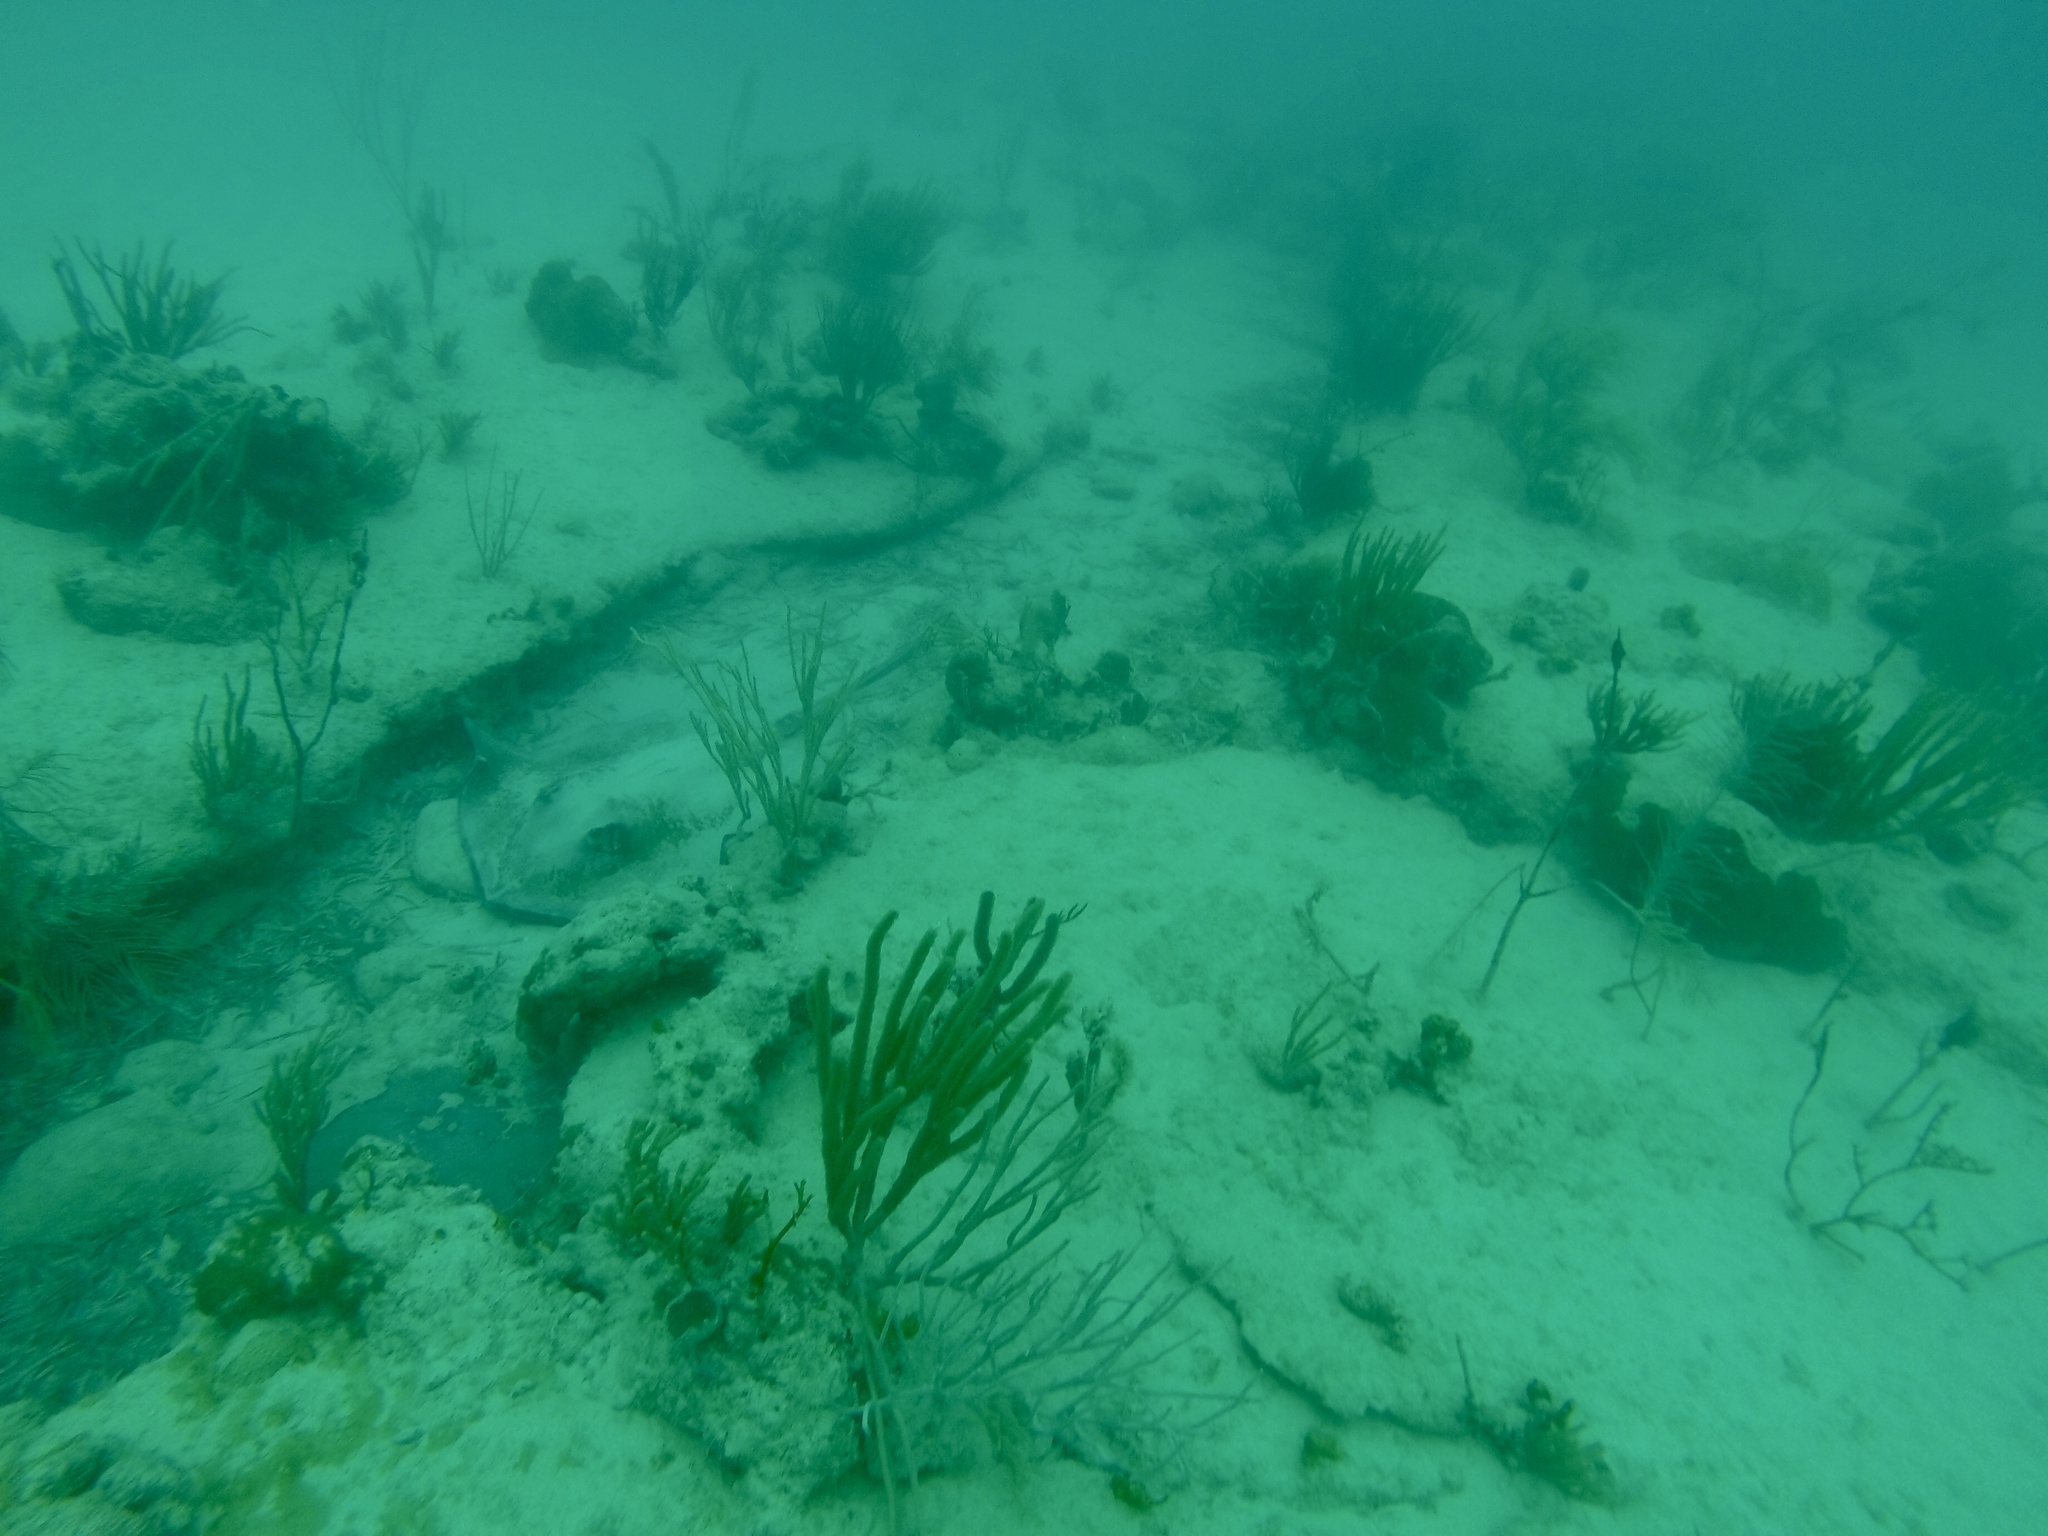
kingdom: Animalia
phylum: Chordata
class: Elasmobranchii
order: Myliobatiformes
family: Dasyatidae
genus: Hypanus
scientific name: Hypanus americanus
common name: Southern stingray
